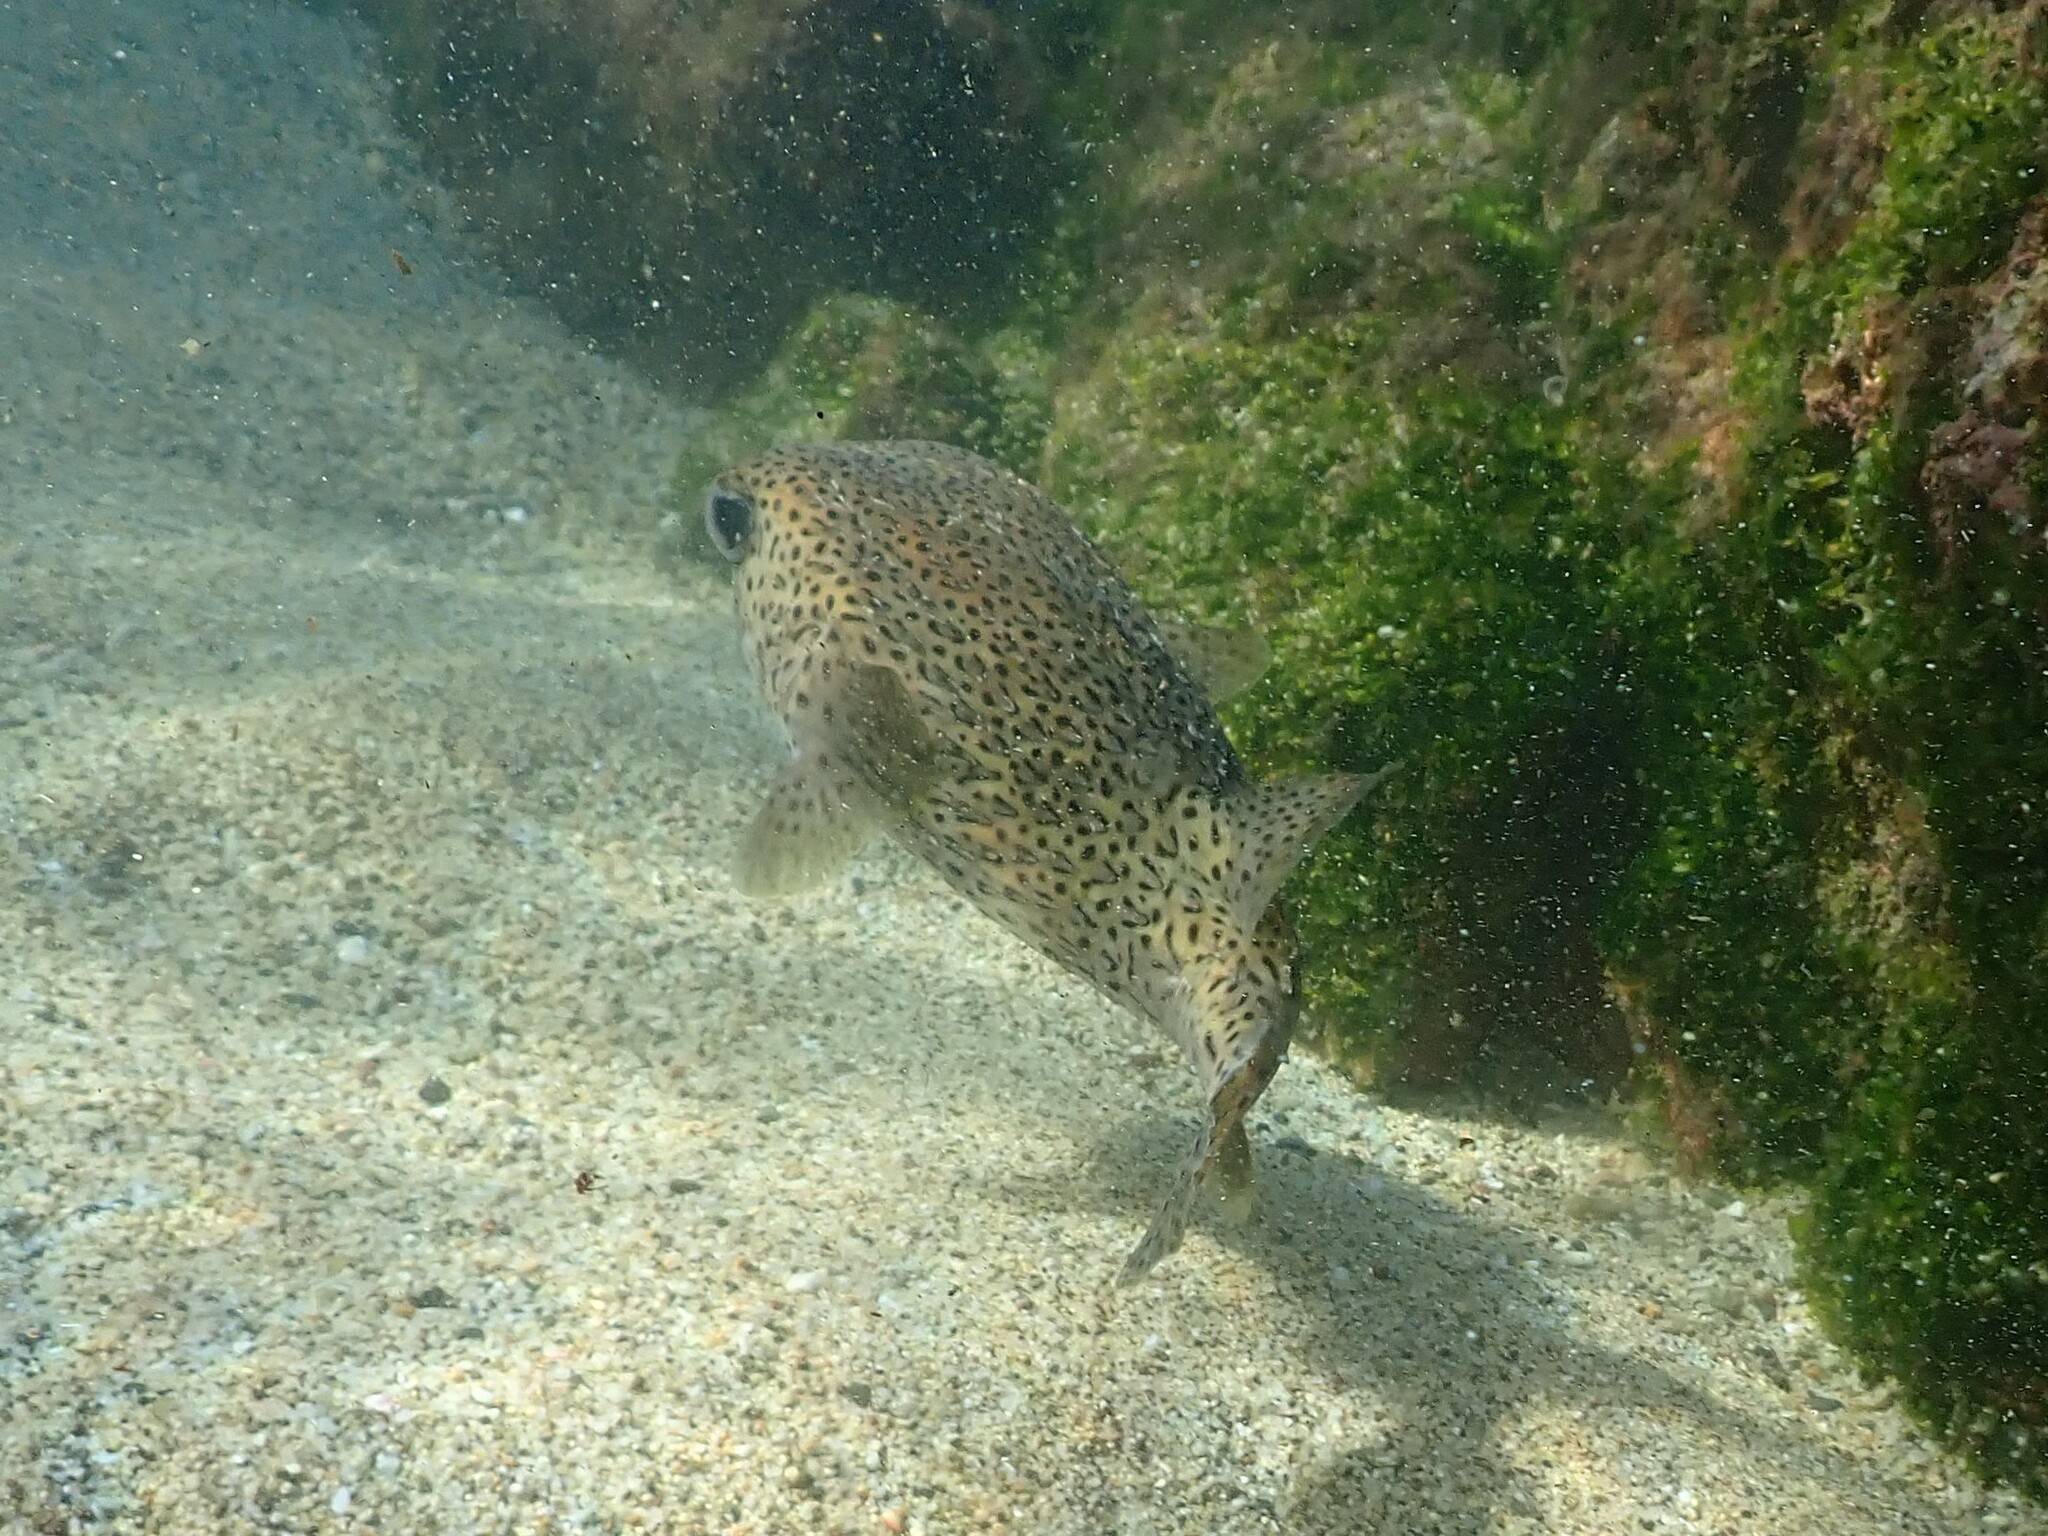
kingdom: Animalia
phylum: Chordata
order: Tetraodontiformes
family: Diodontidae
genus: Diodon
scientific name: Diodon hystrix
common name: Giant porcupinefish
